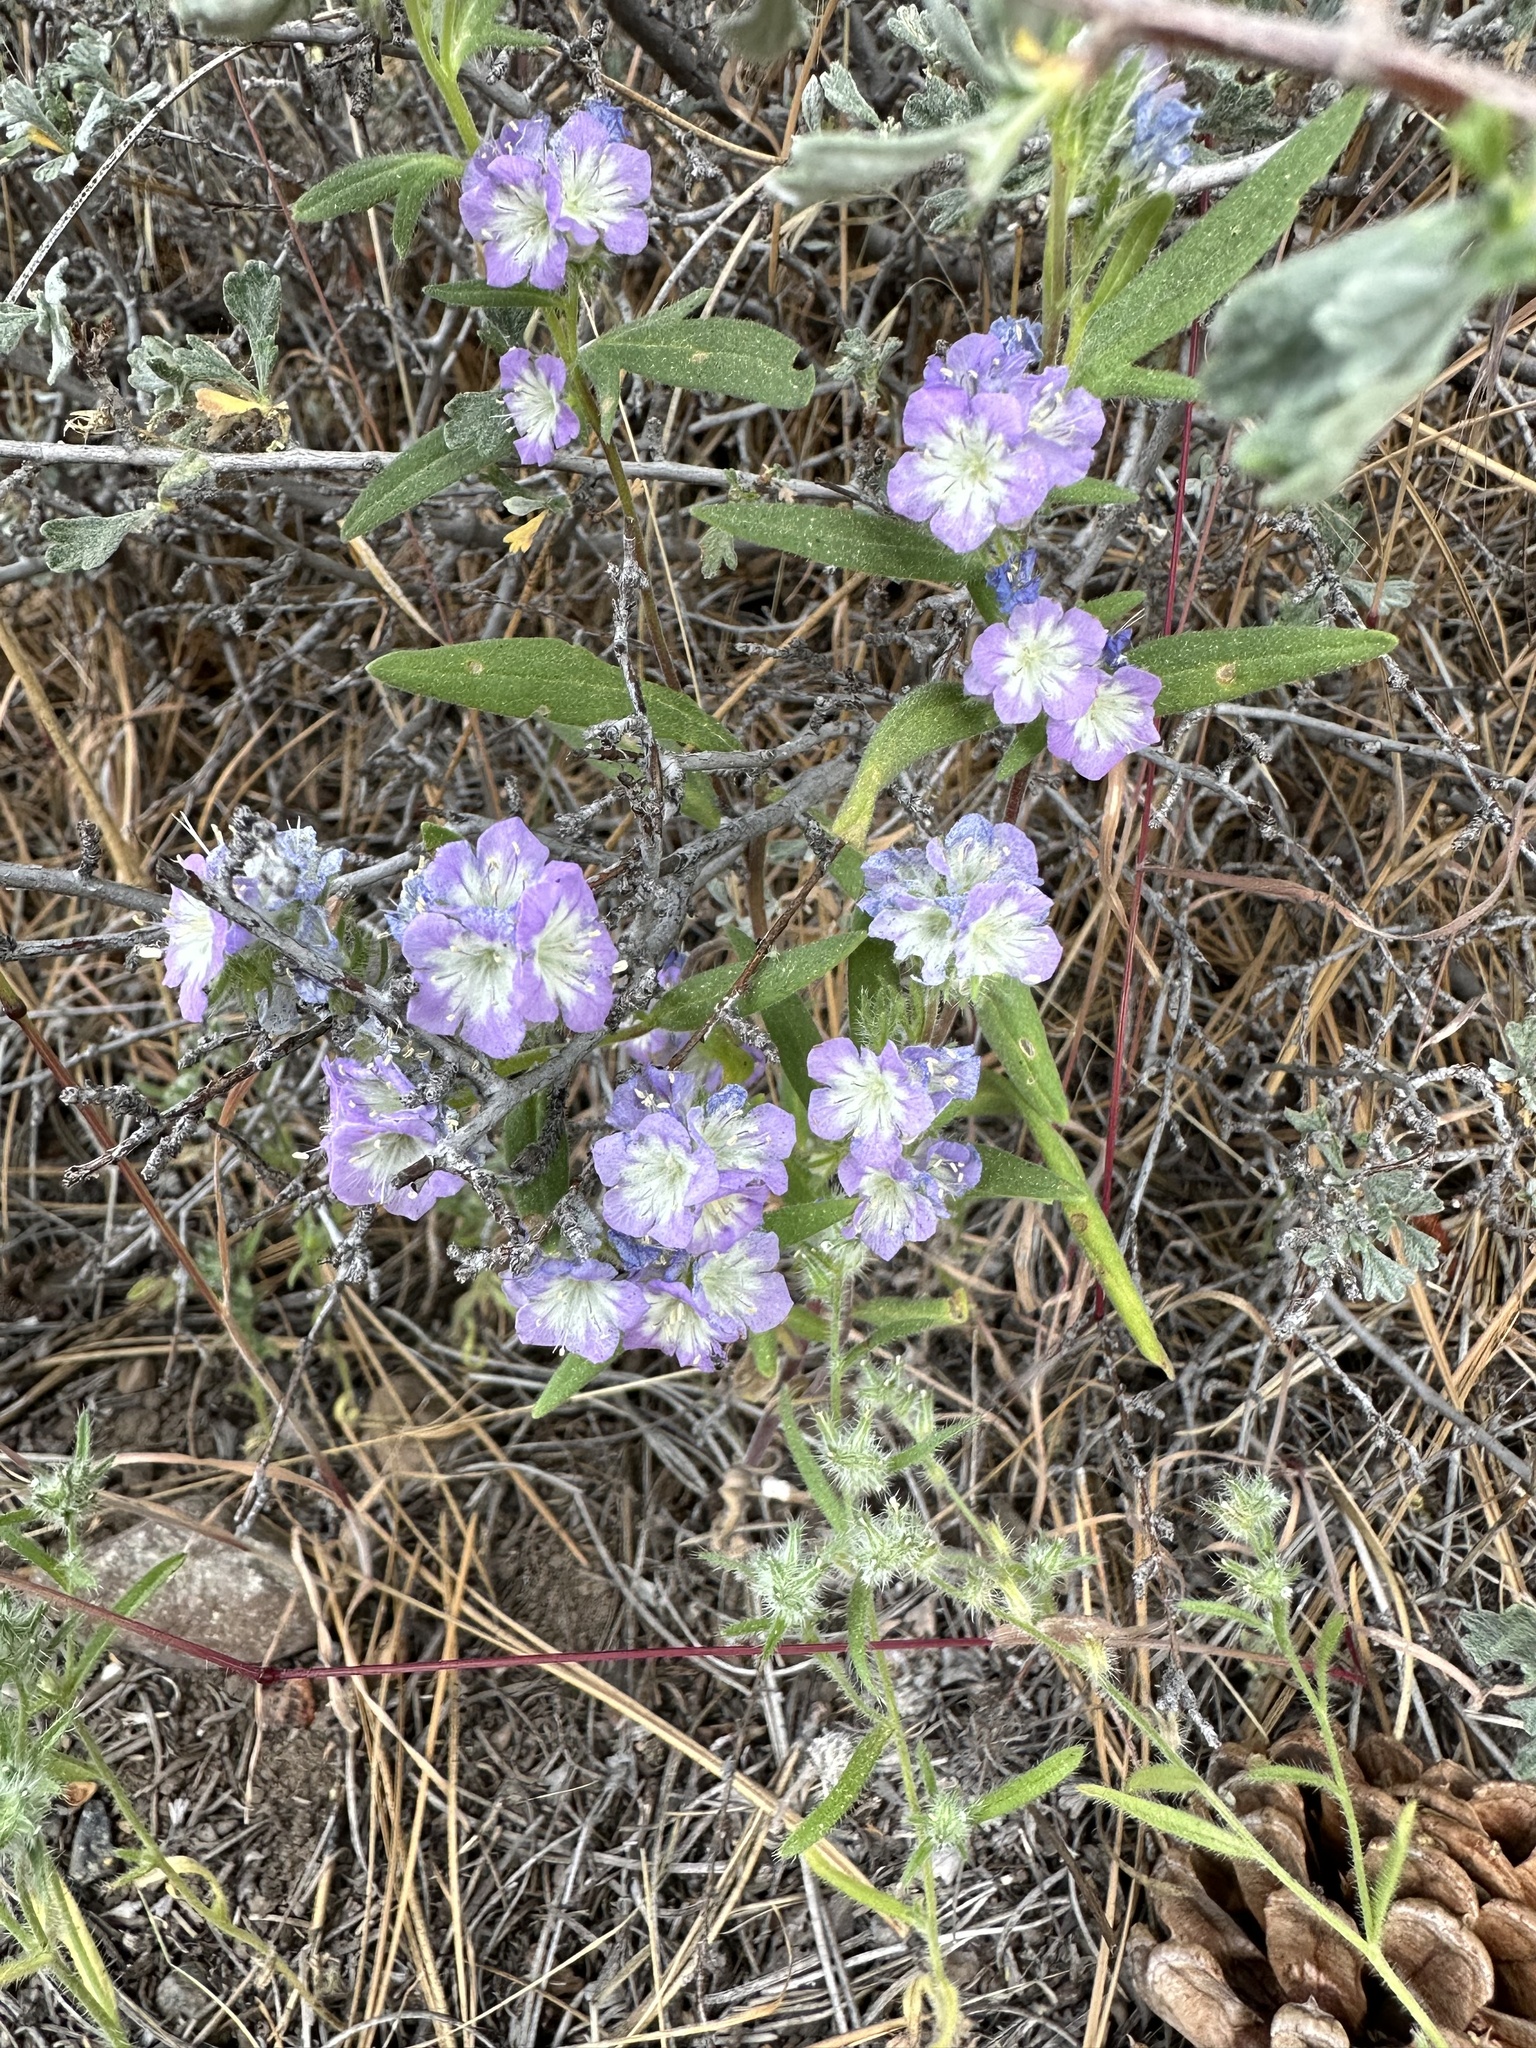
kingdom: Plantae
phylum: Tracheophyta
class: Magnoliopsida
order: Boraginales
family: Hydrophyllaceae
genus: Phacelia
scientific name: Phacelia linearis
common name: Linear-leaved phacelia
